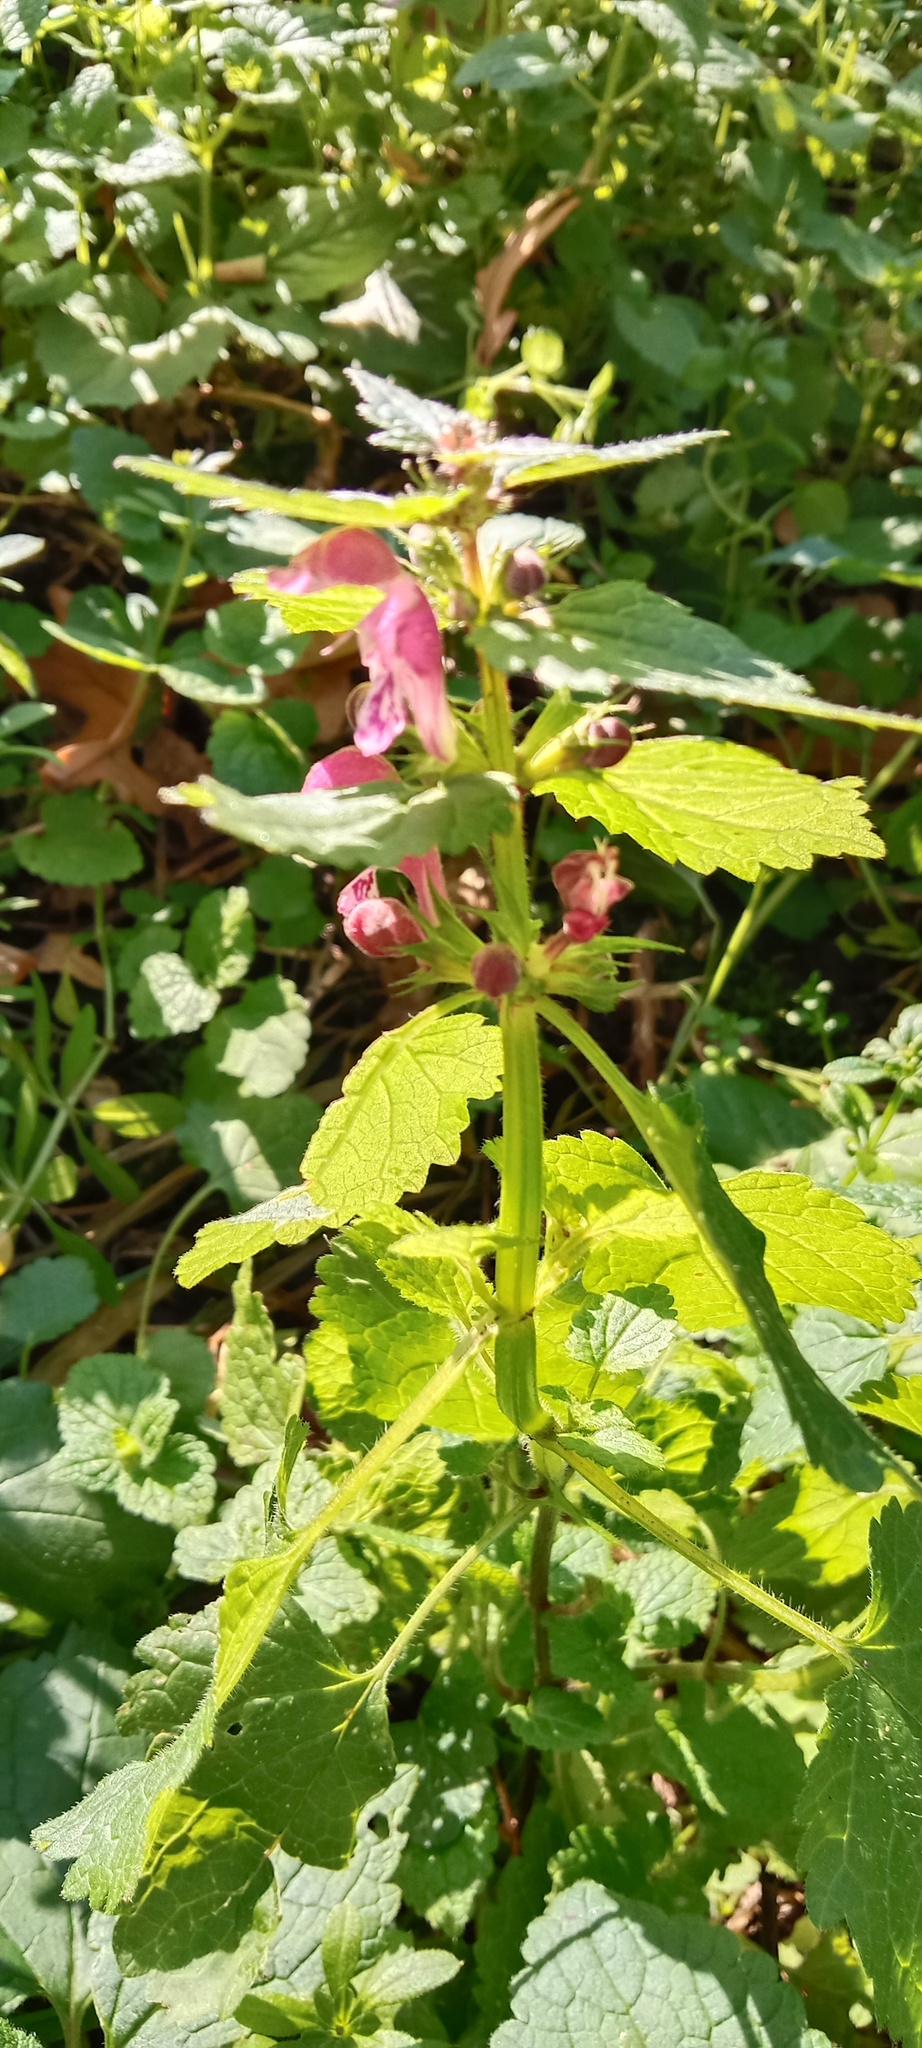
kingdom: Plantae
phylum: Tracheophyta
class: Magnoliopsida
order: Lamiales
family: Lamiaceae
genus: Lamium
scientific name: Lamium maculatum
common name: Spotted dead-nettle
